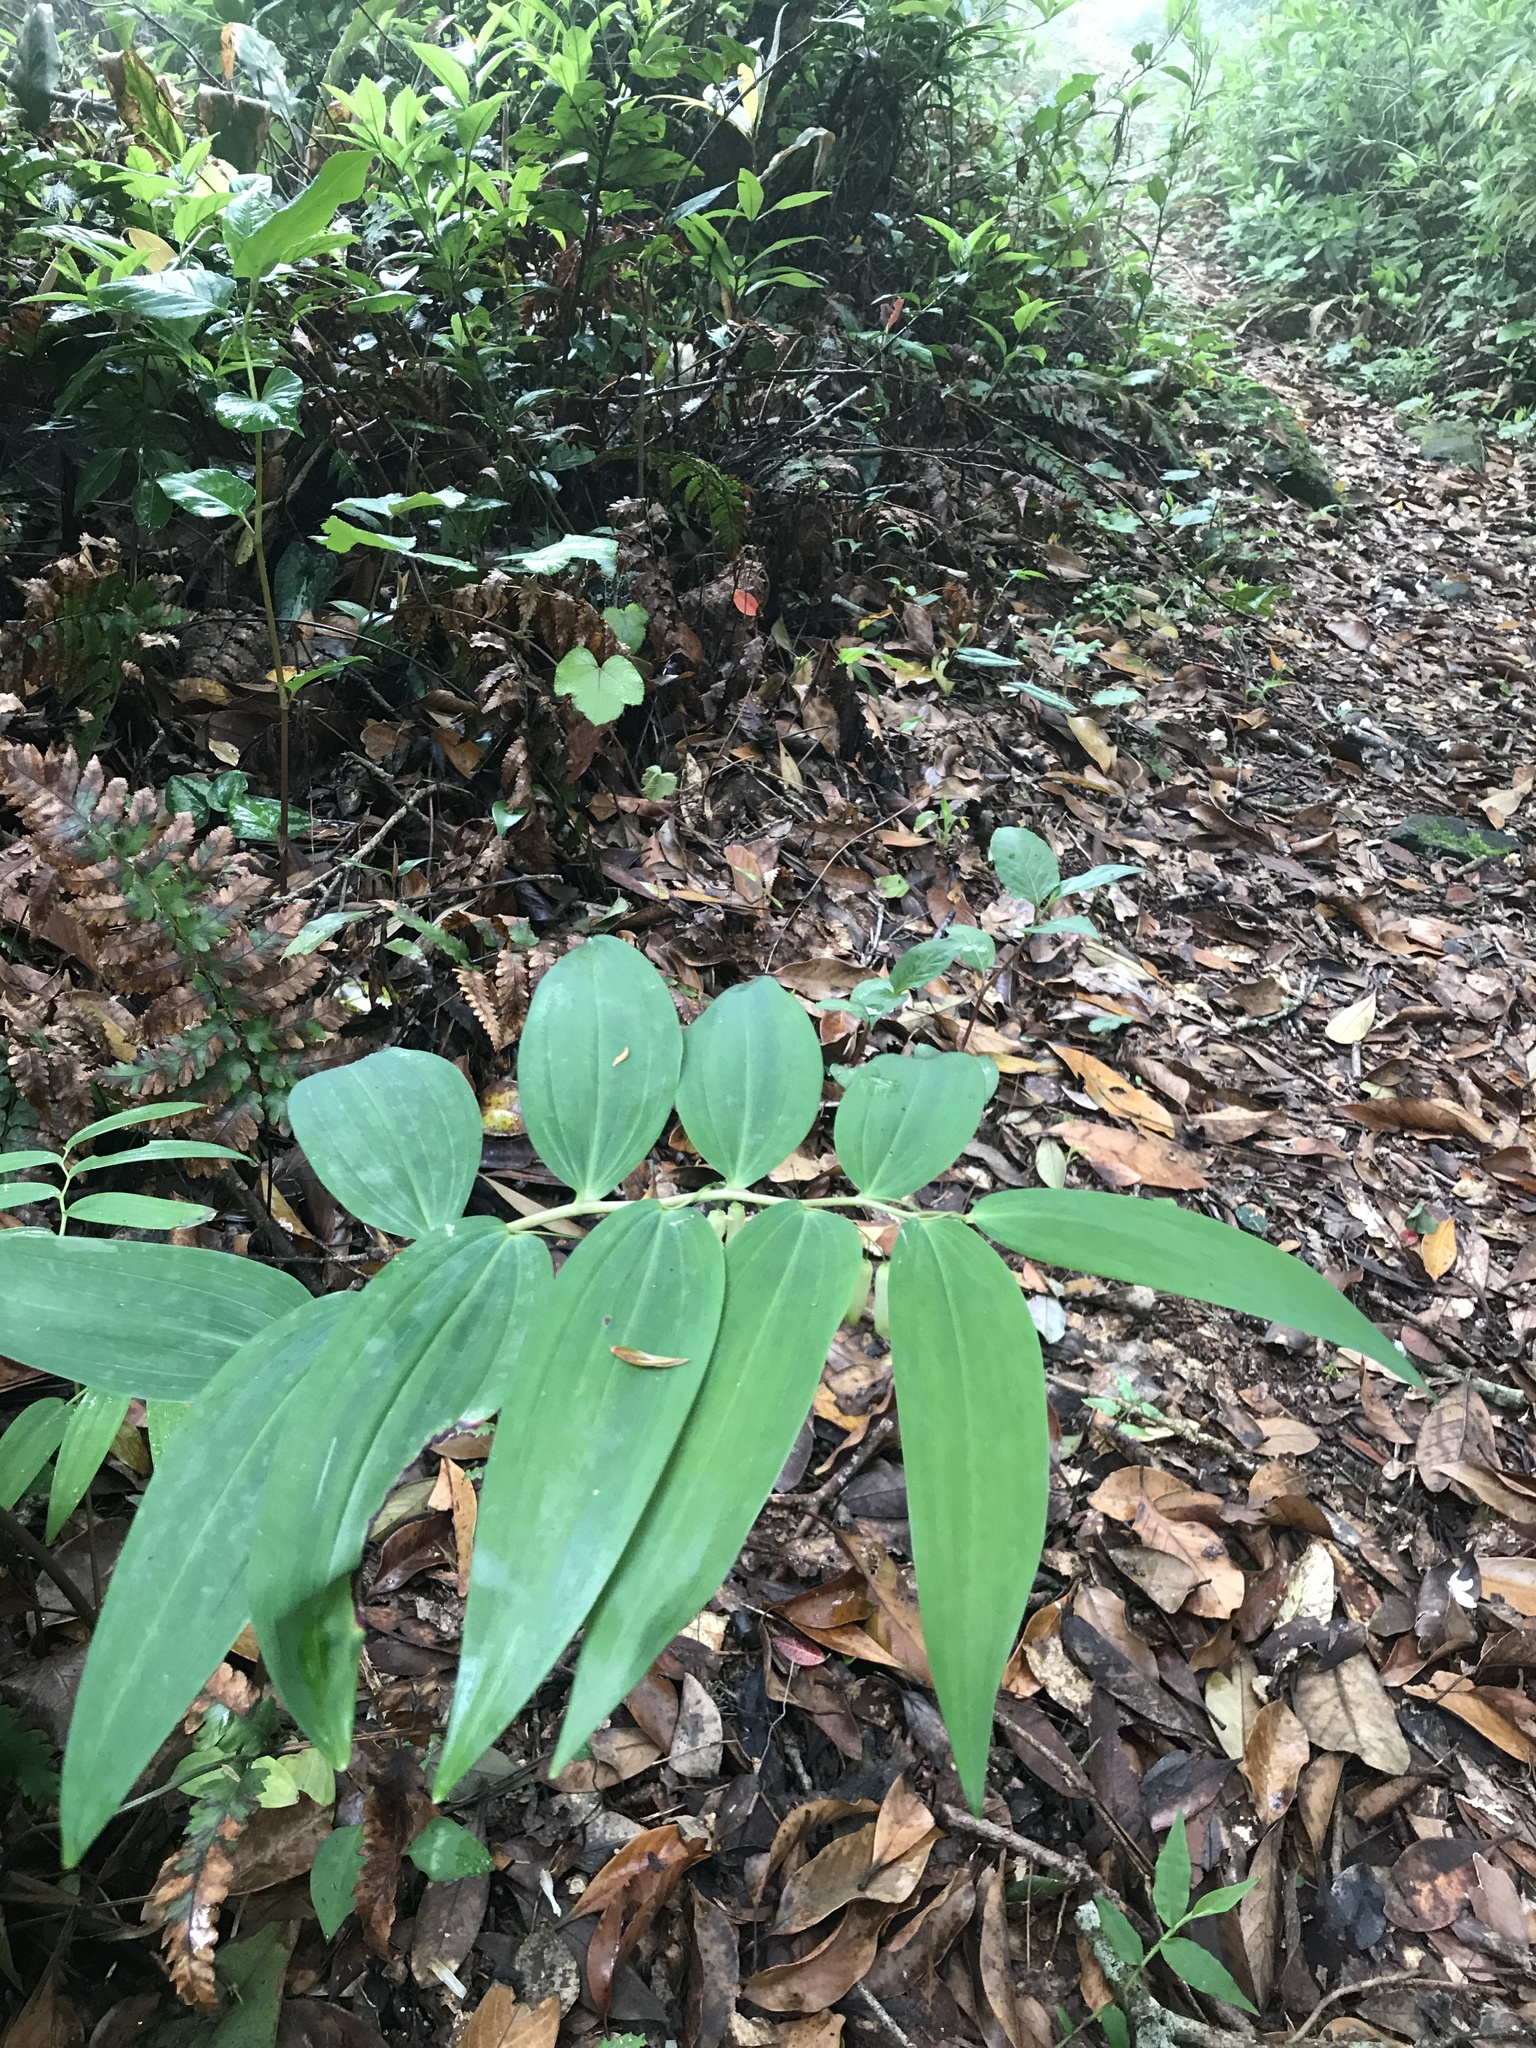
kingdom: Plantae
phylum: Tracheophyta
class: Liliopsida
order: Asparagales
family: Asparagaceae
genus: Polygonatum
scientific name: Polygonatum falcatum
